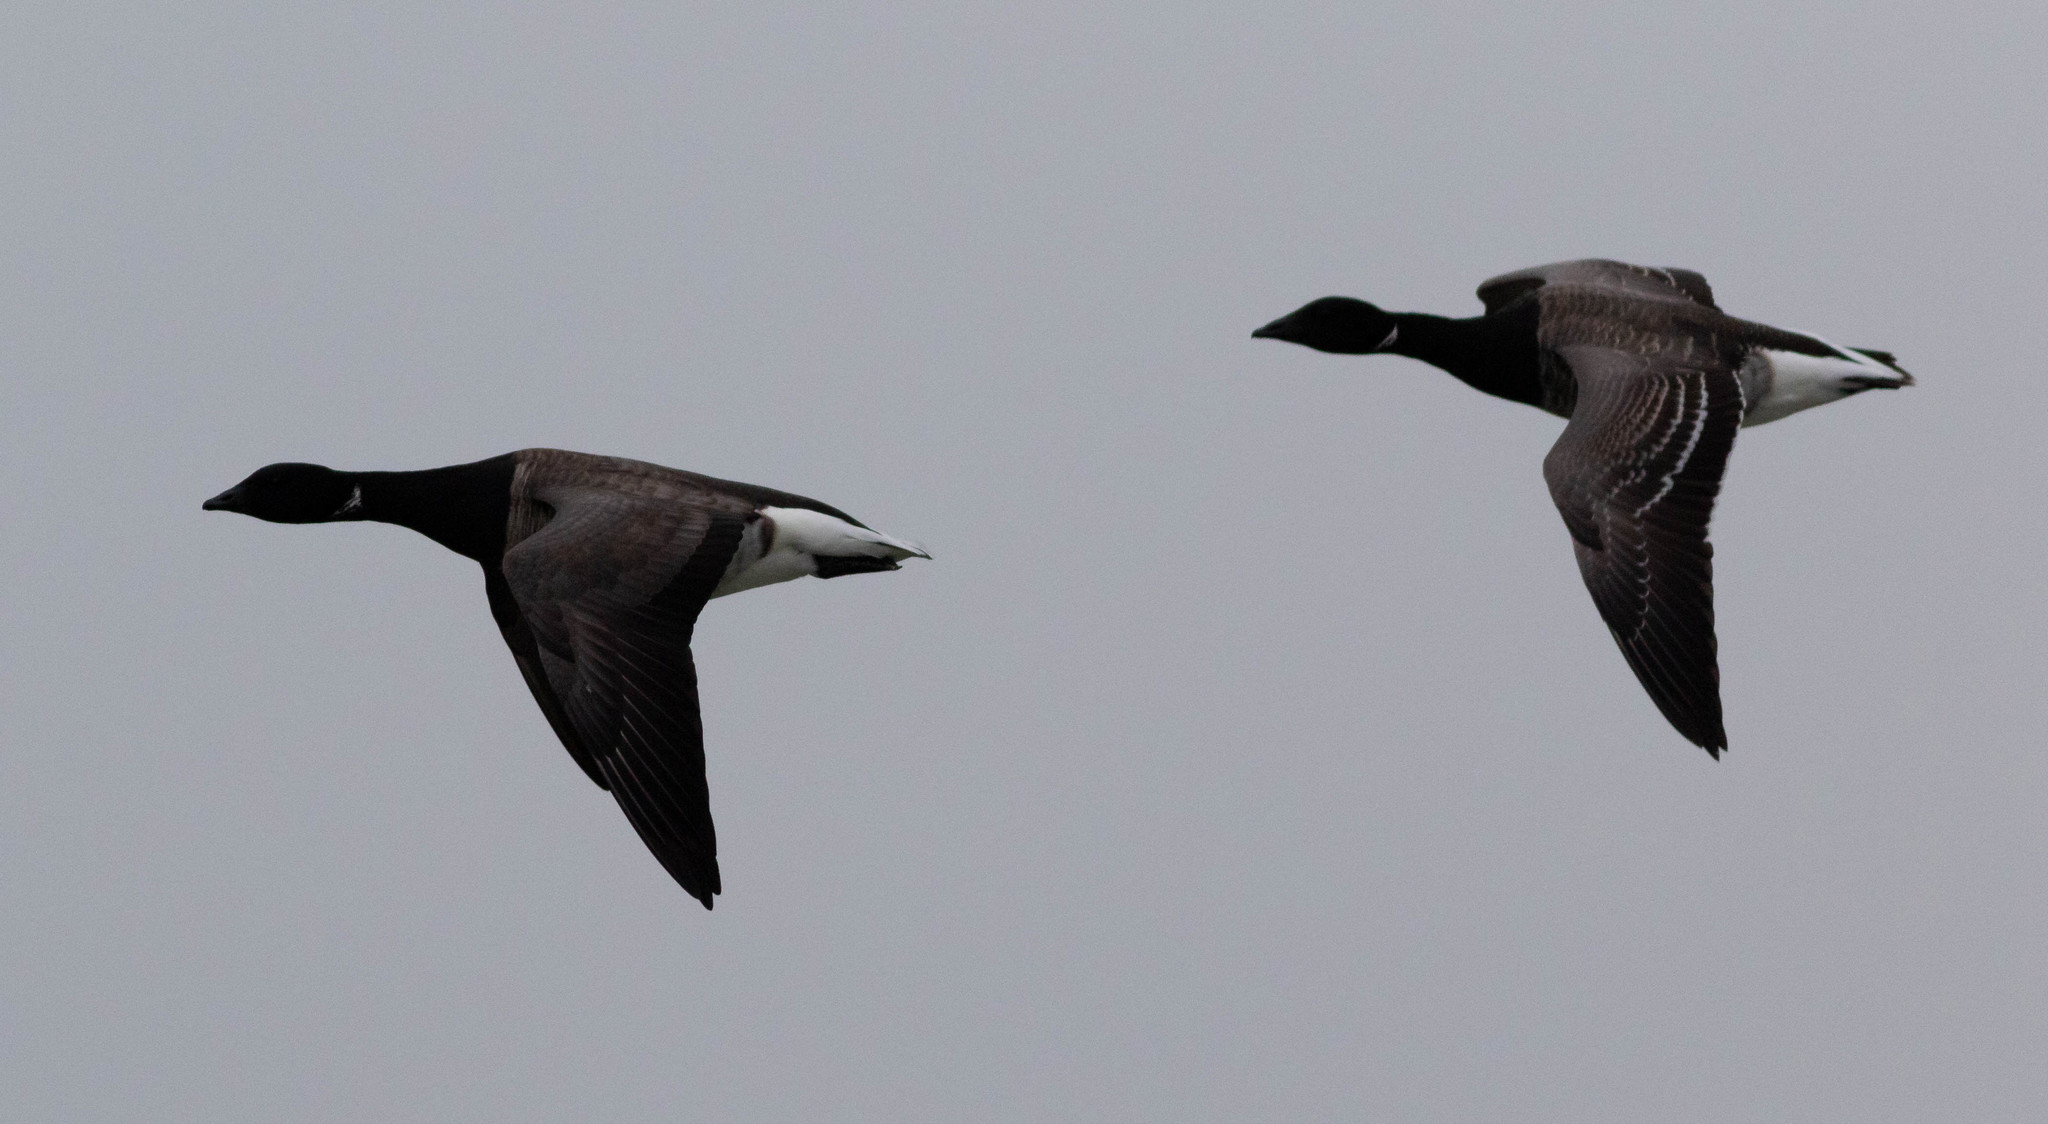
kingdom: Animalia
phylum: Chordata
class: Aves
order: Anseriformes
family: Anatidae
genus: Branta
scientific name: Branta bernicla
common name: Brant goose
